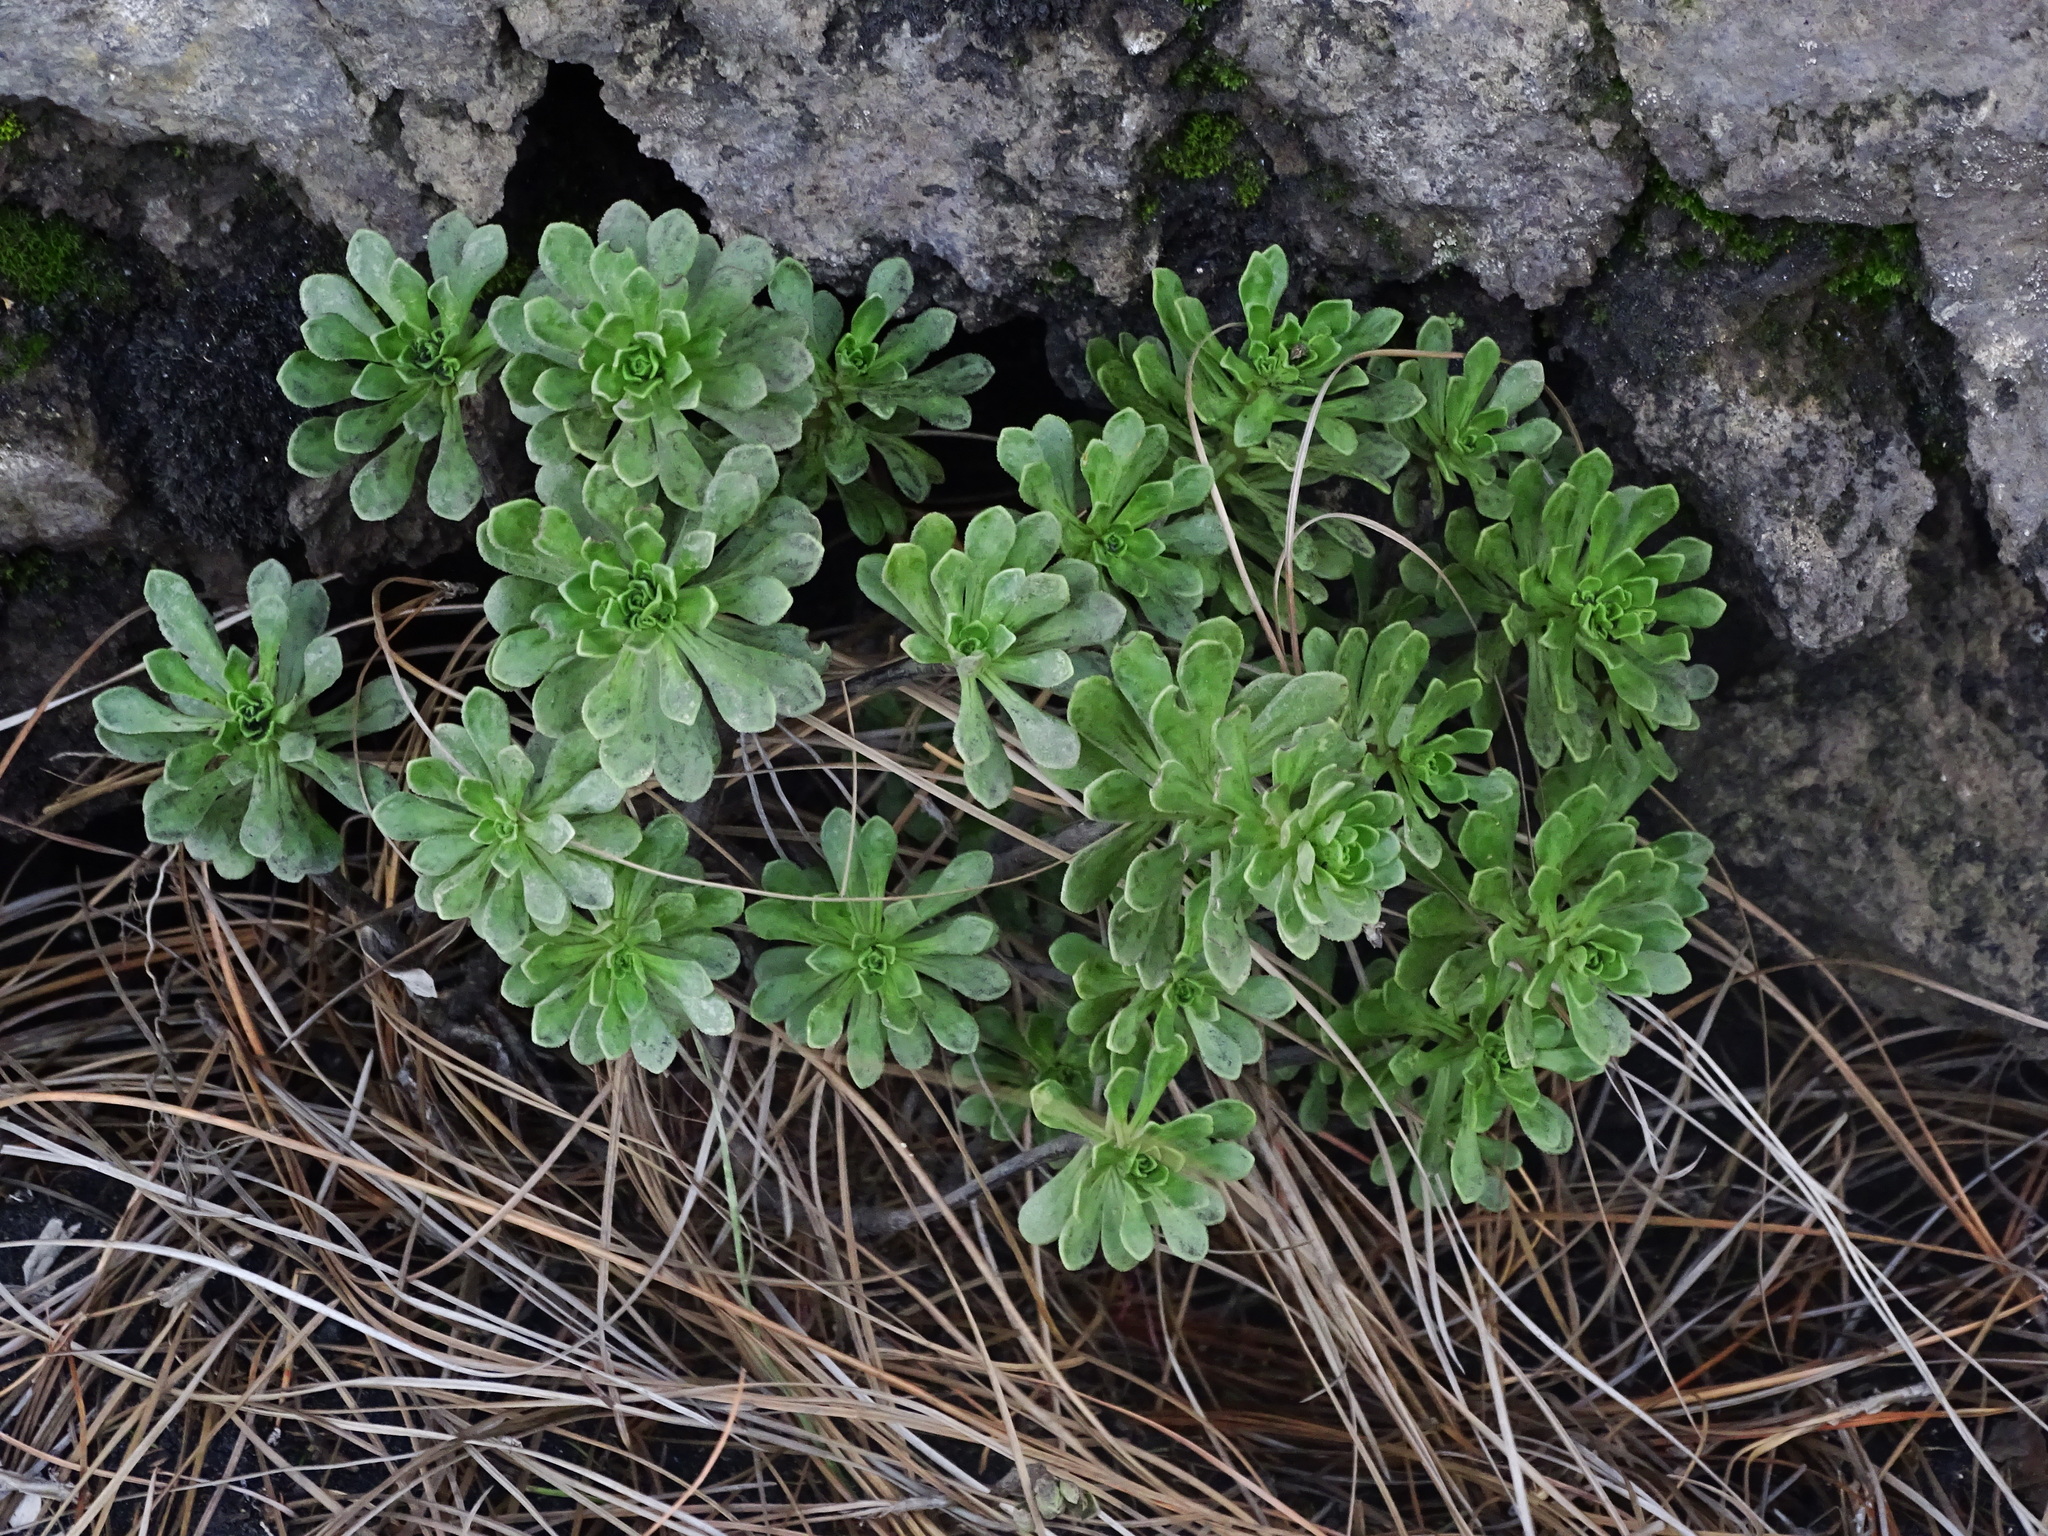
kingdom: Plantae
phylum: Tracheophyta
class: Magnoliopsida
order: Saxifragales
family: Crassulaceae
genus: Aeonium
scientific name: Aeonium spathulatum
